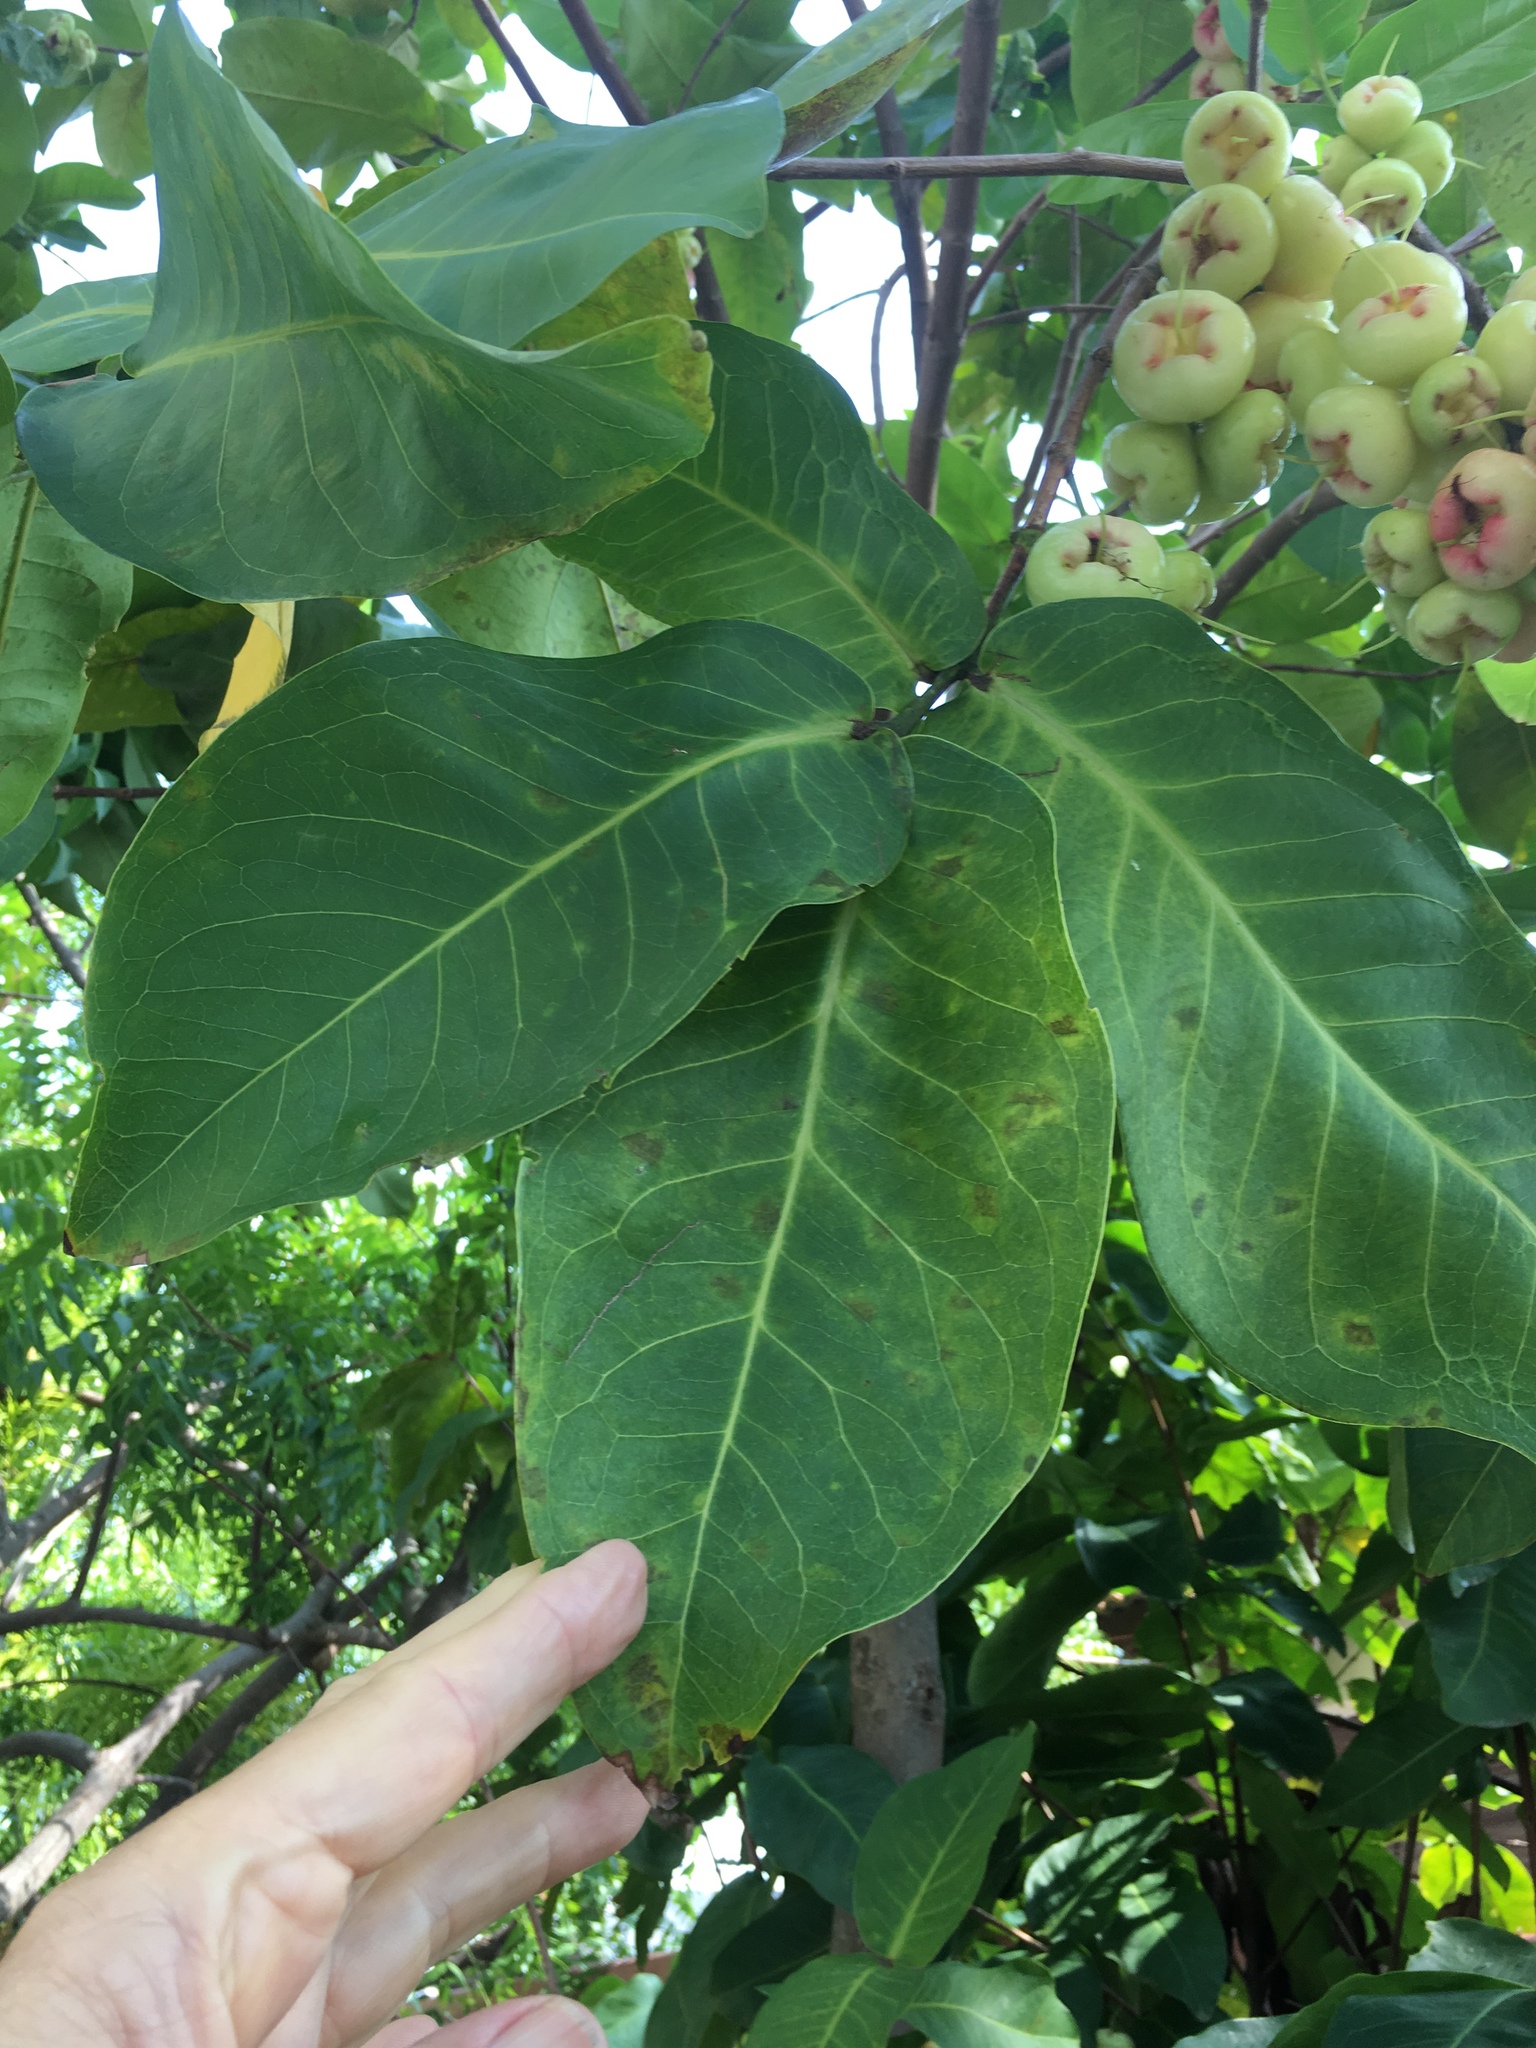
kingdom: Plantae
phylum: Tracheophyta
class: Magnoliopsida
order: Myrtales
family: Myrtaceae
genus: Syzygium
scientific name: Syzygium aqueum
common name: Water-apple
